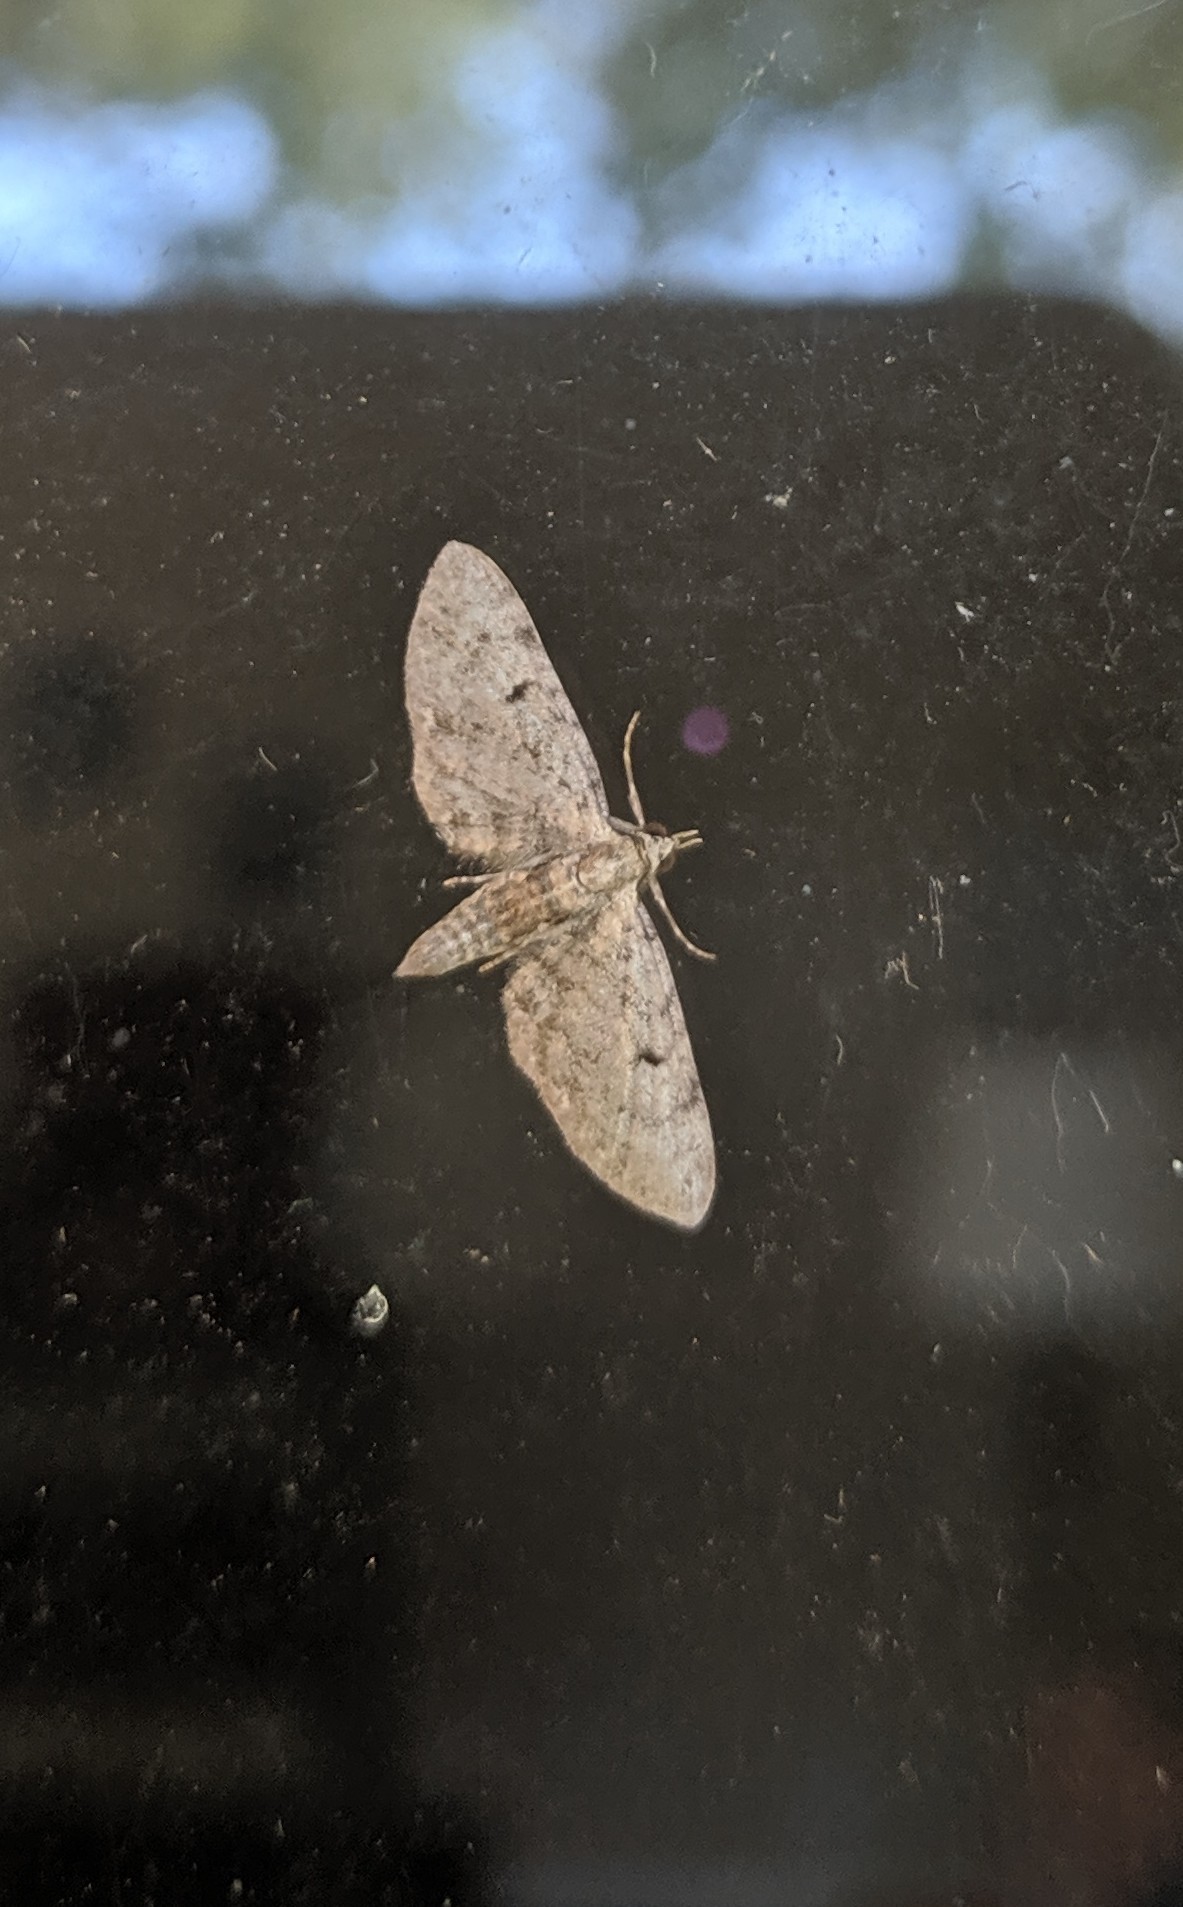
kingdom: Animalia
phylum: Arthropoda
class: Insecta
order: Lepidoptera
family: Geometridae
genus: Eupithecia
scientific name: Eupithecia miserulata
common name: Common eupithecia
